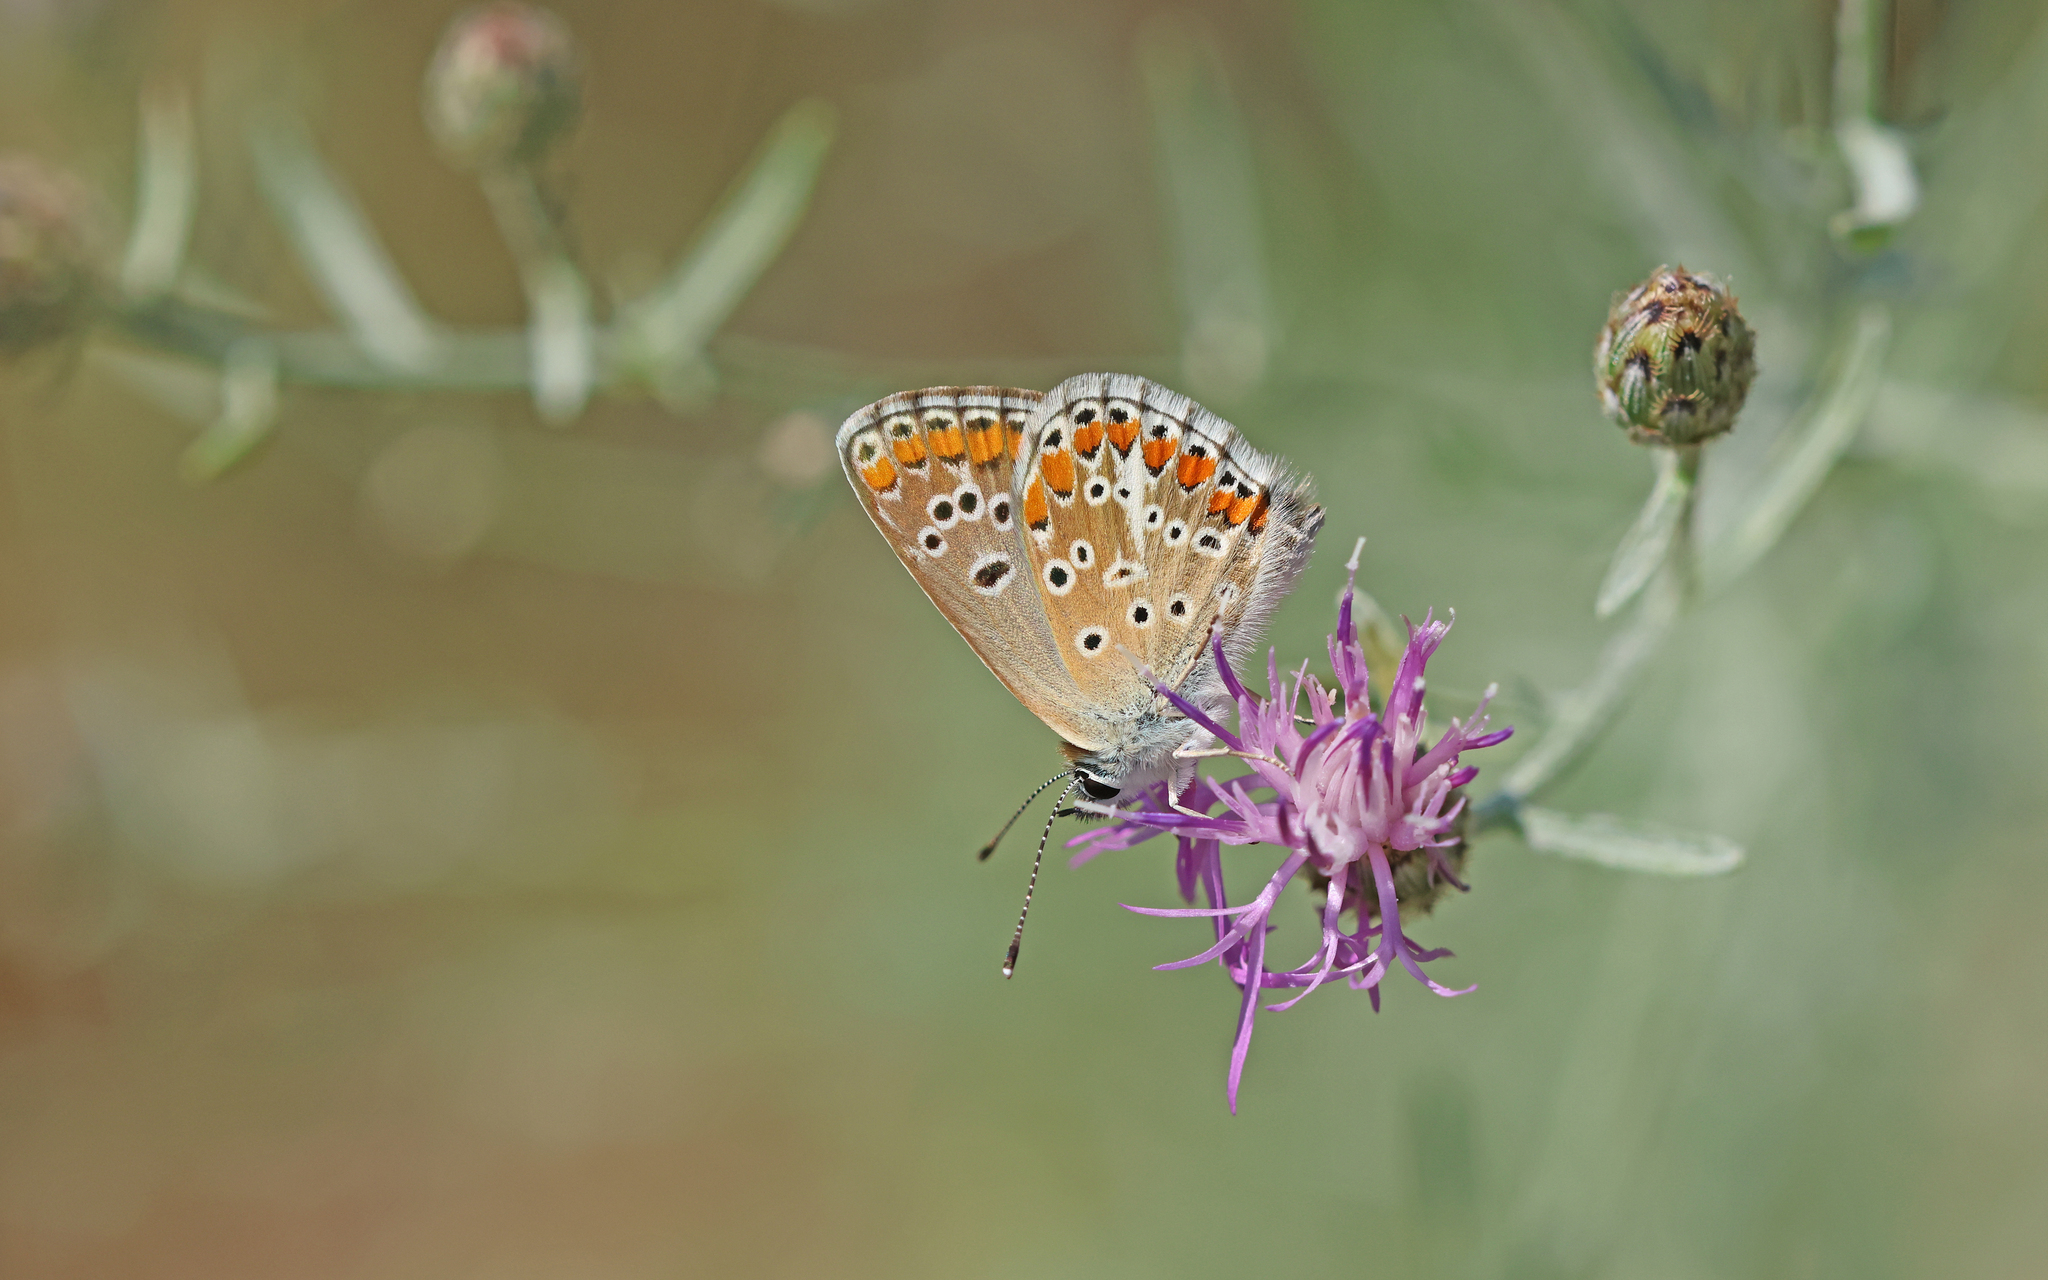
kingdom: Animalia
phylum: Arthropoda
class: Insecta
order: Lepidoptera
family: Lycaenidae
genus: Aricia
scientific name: Aricia agestis
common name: Brown argus
